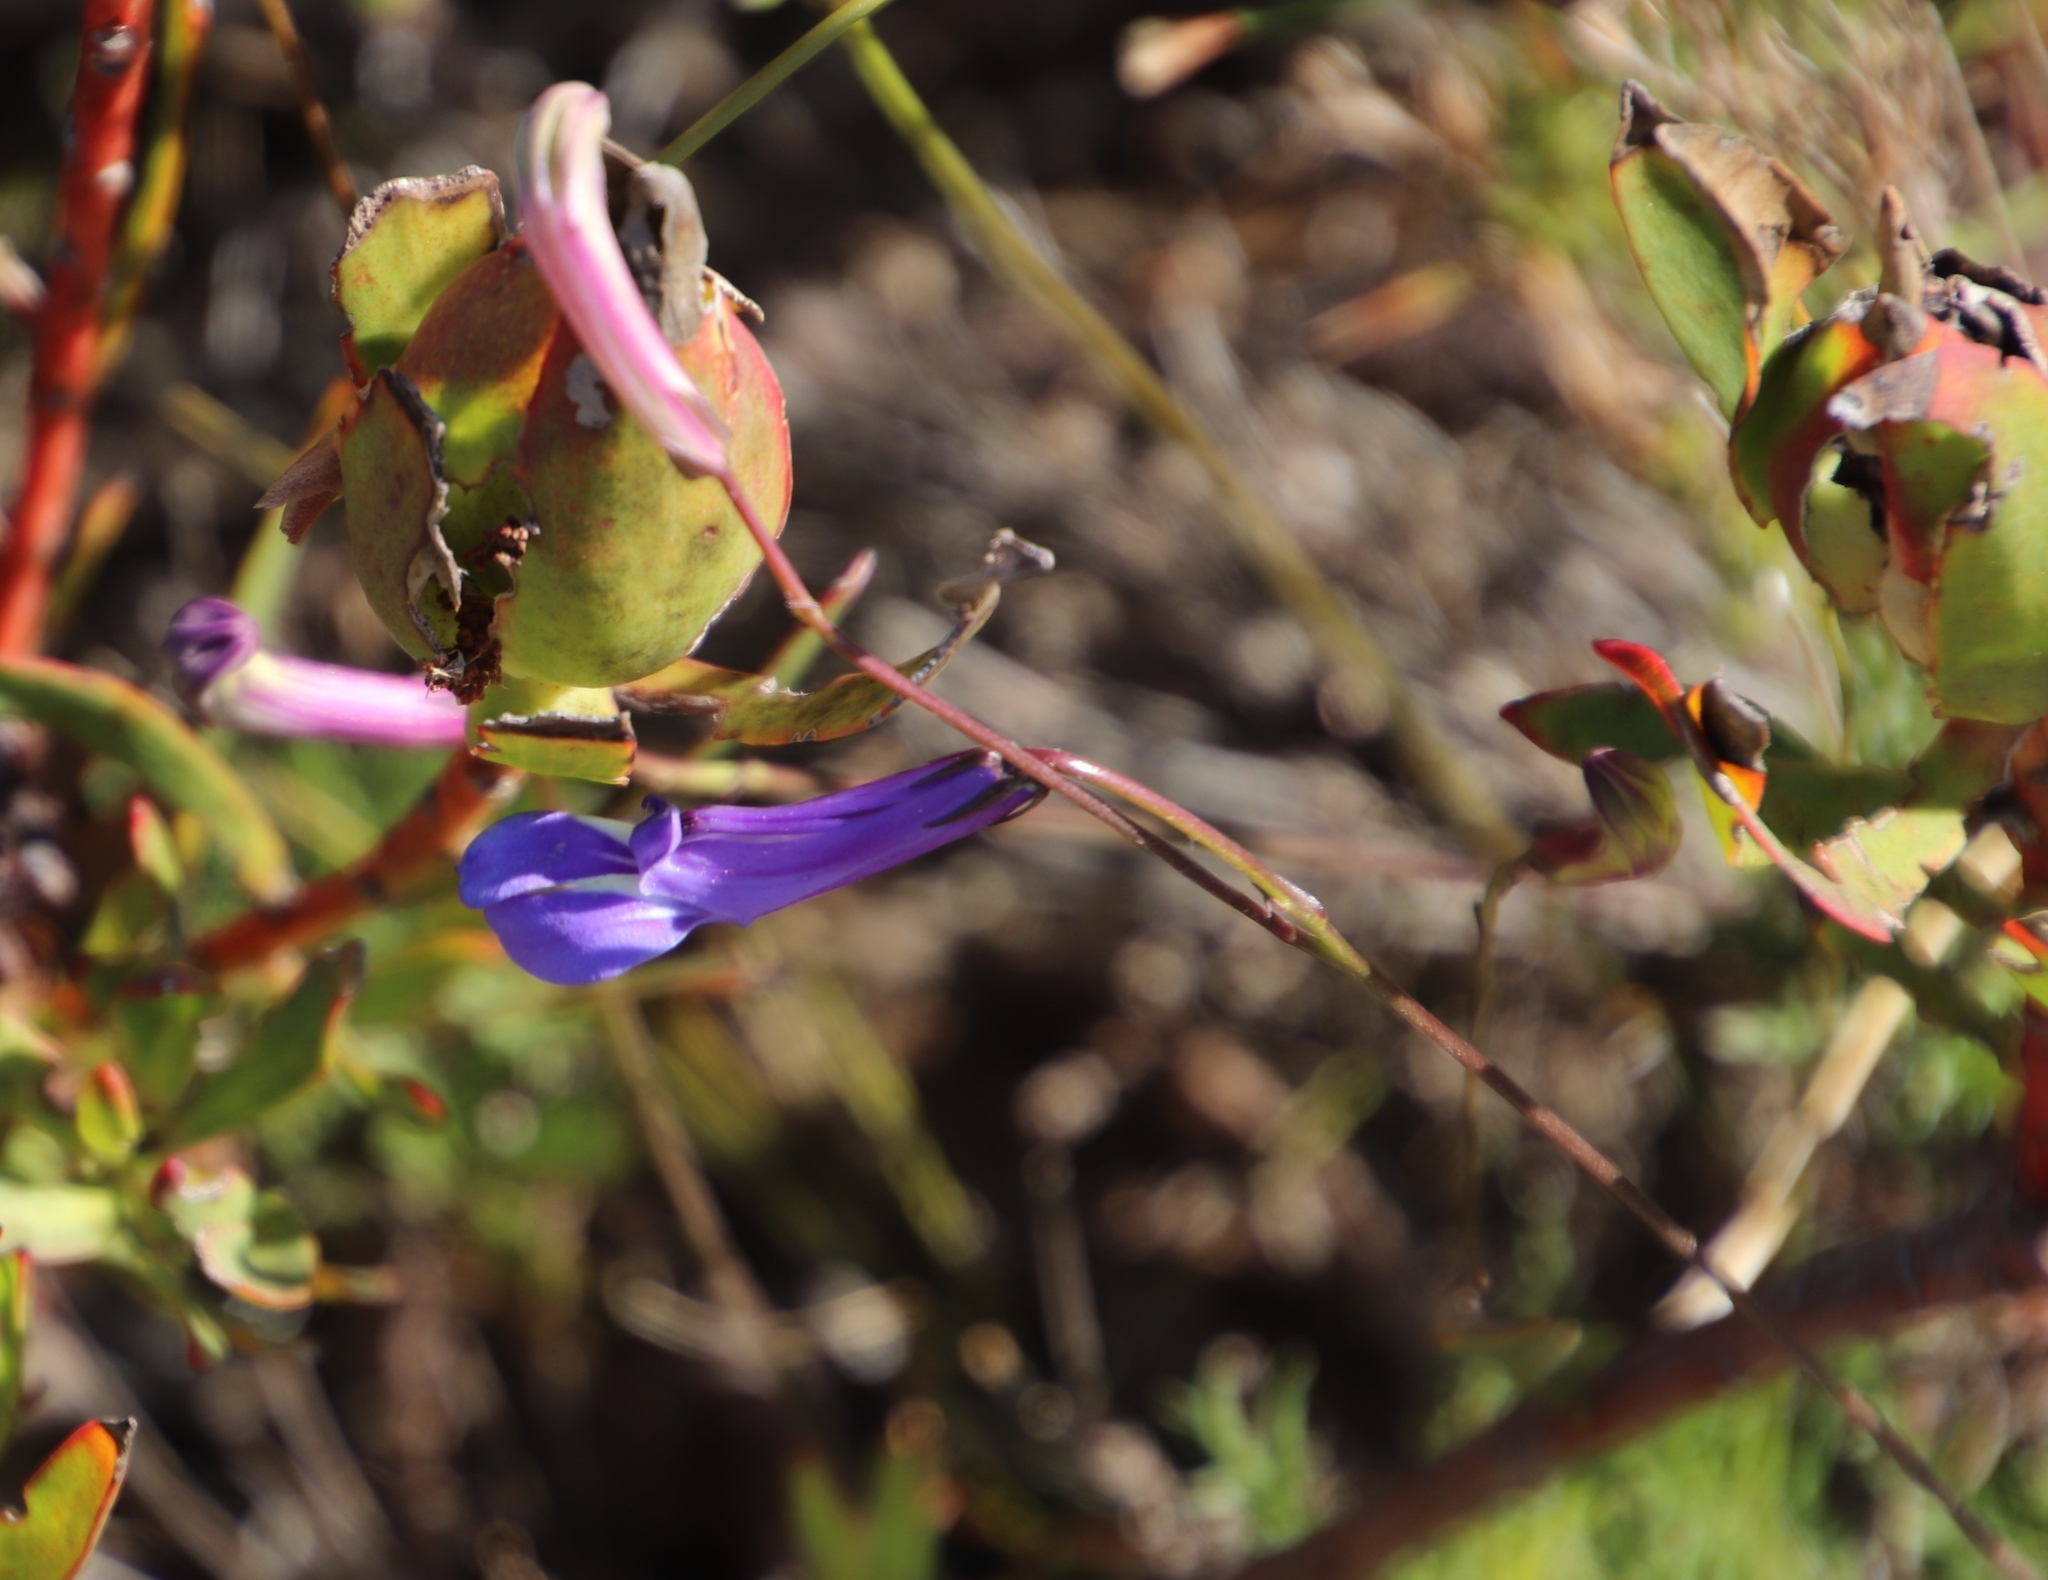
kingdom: Plantae
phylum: Tracheophyta
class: Magnoliopsida
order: Asterales
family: Campanulaceae
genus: Lobelia
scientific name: Lobelia coronopifolia
